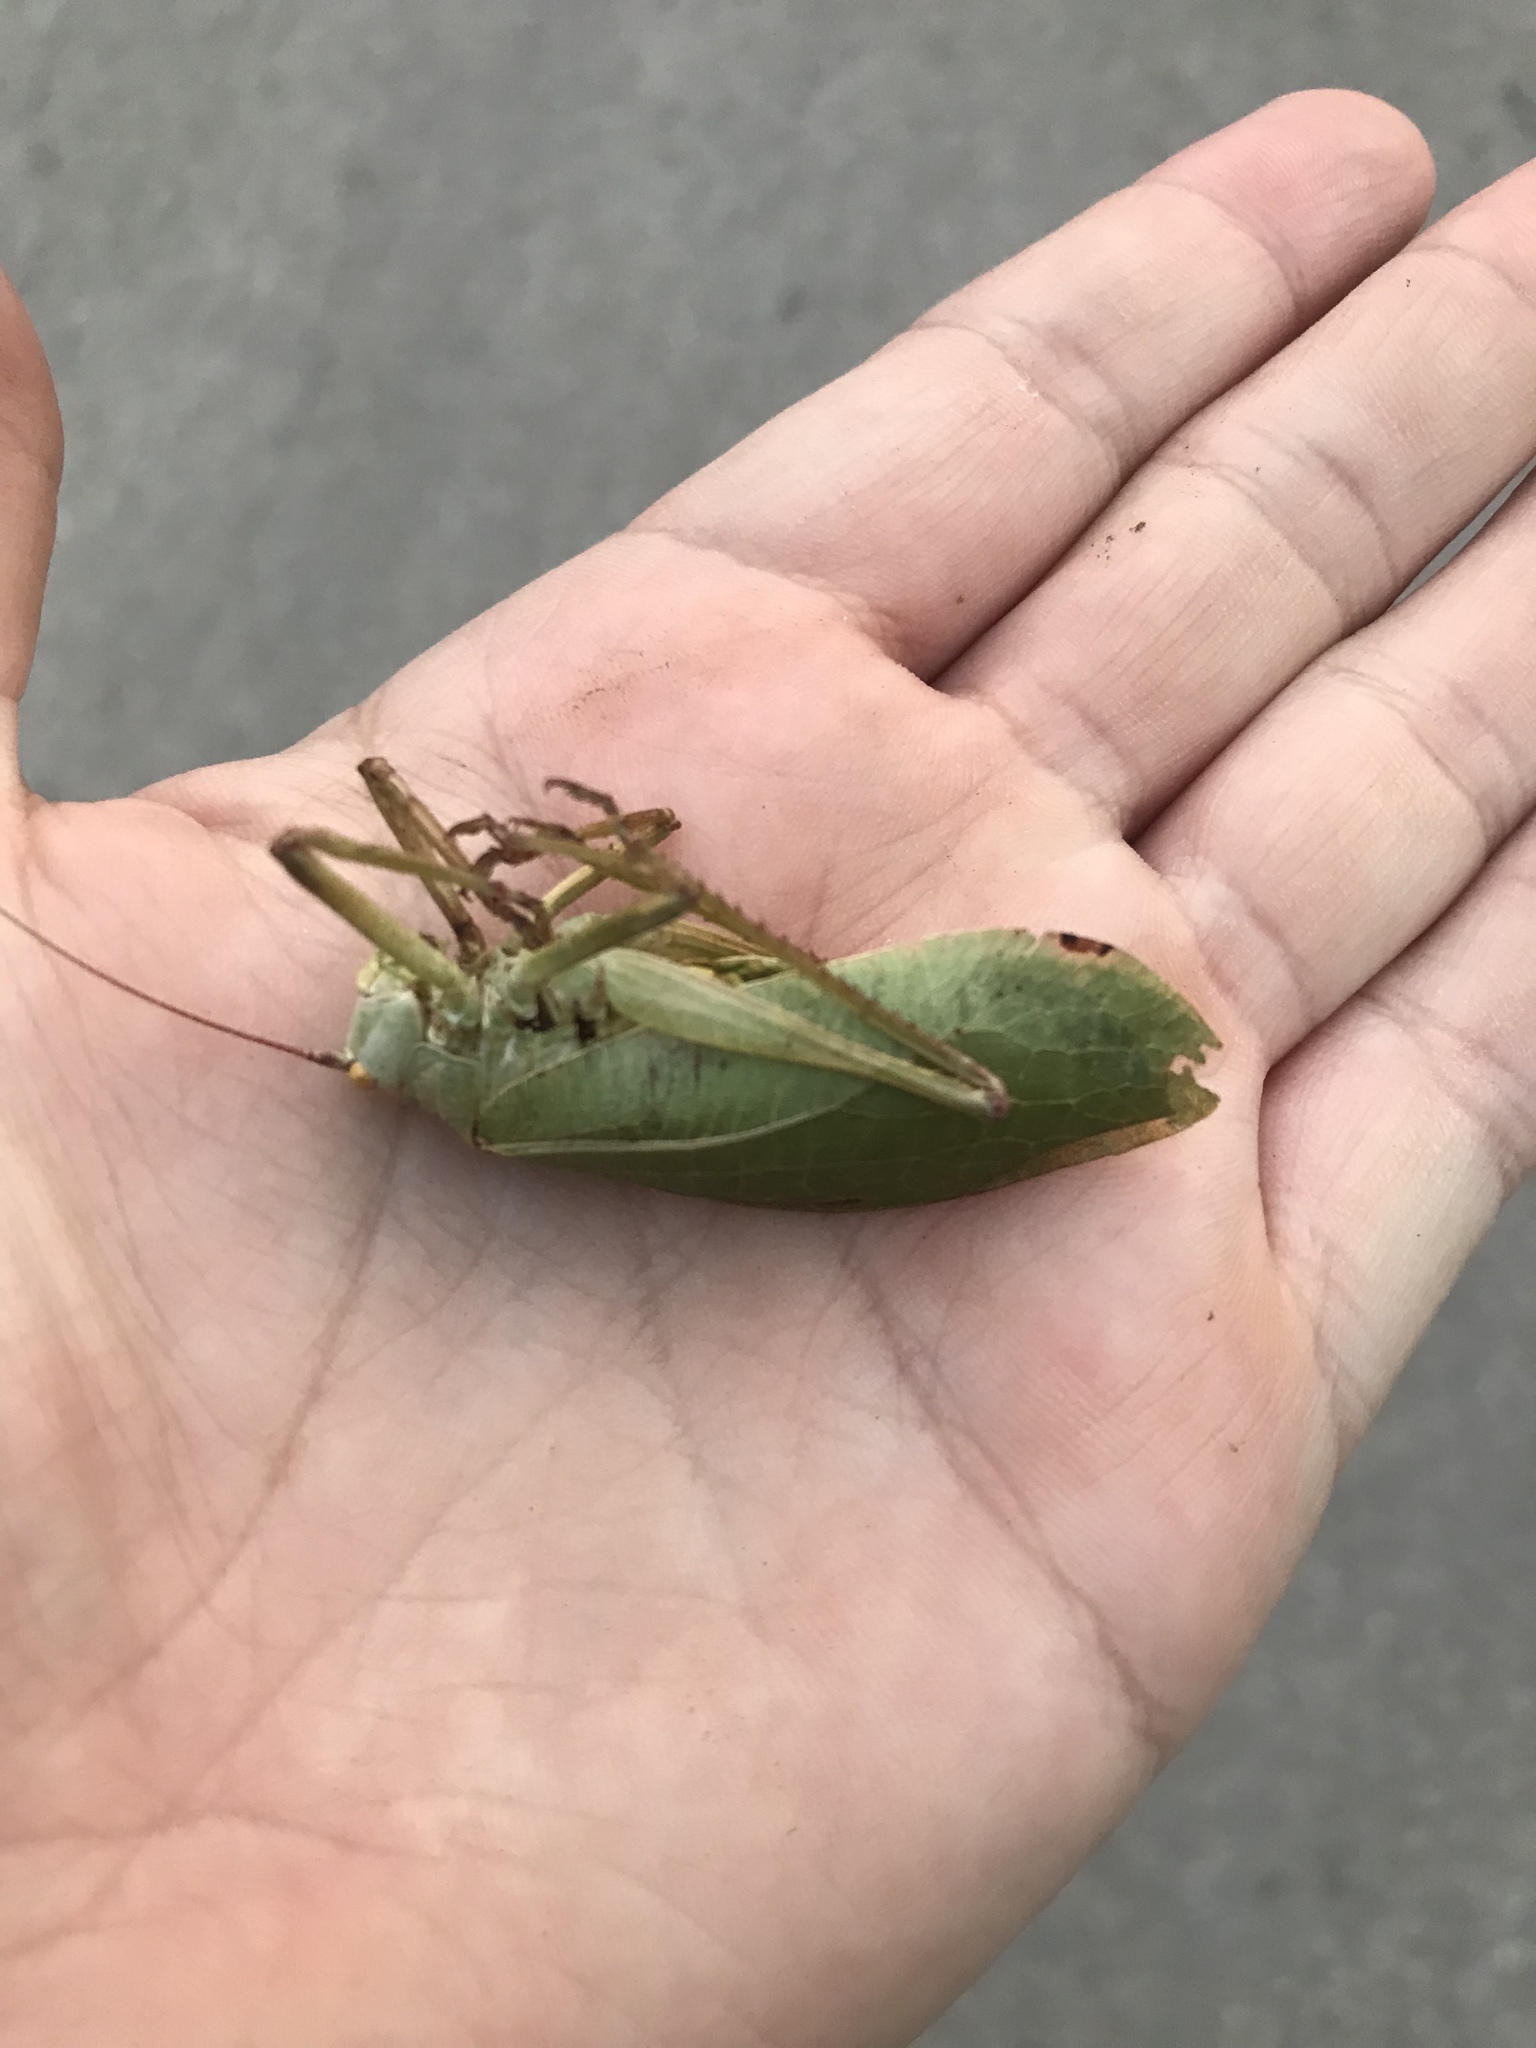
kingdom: Animalia
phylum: Arthropoda
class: Insecta
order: Orthoptera
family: Tettigoniidae
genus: Pterophylla
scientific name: Pterophylla camellifolia
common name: Common true katydid
